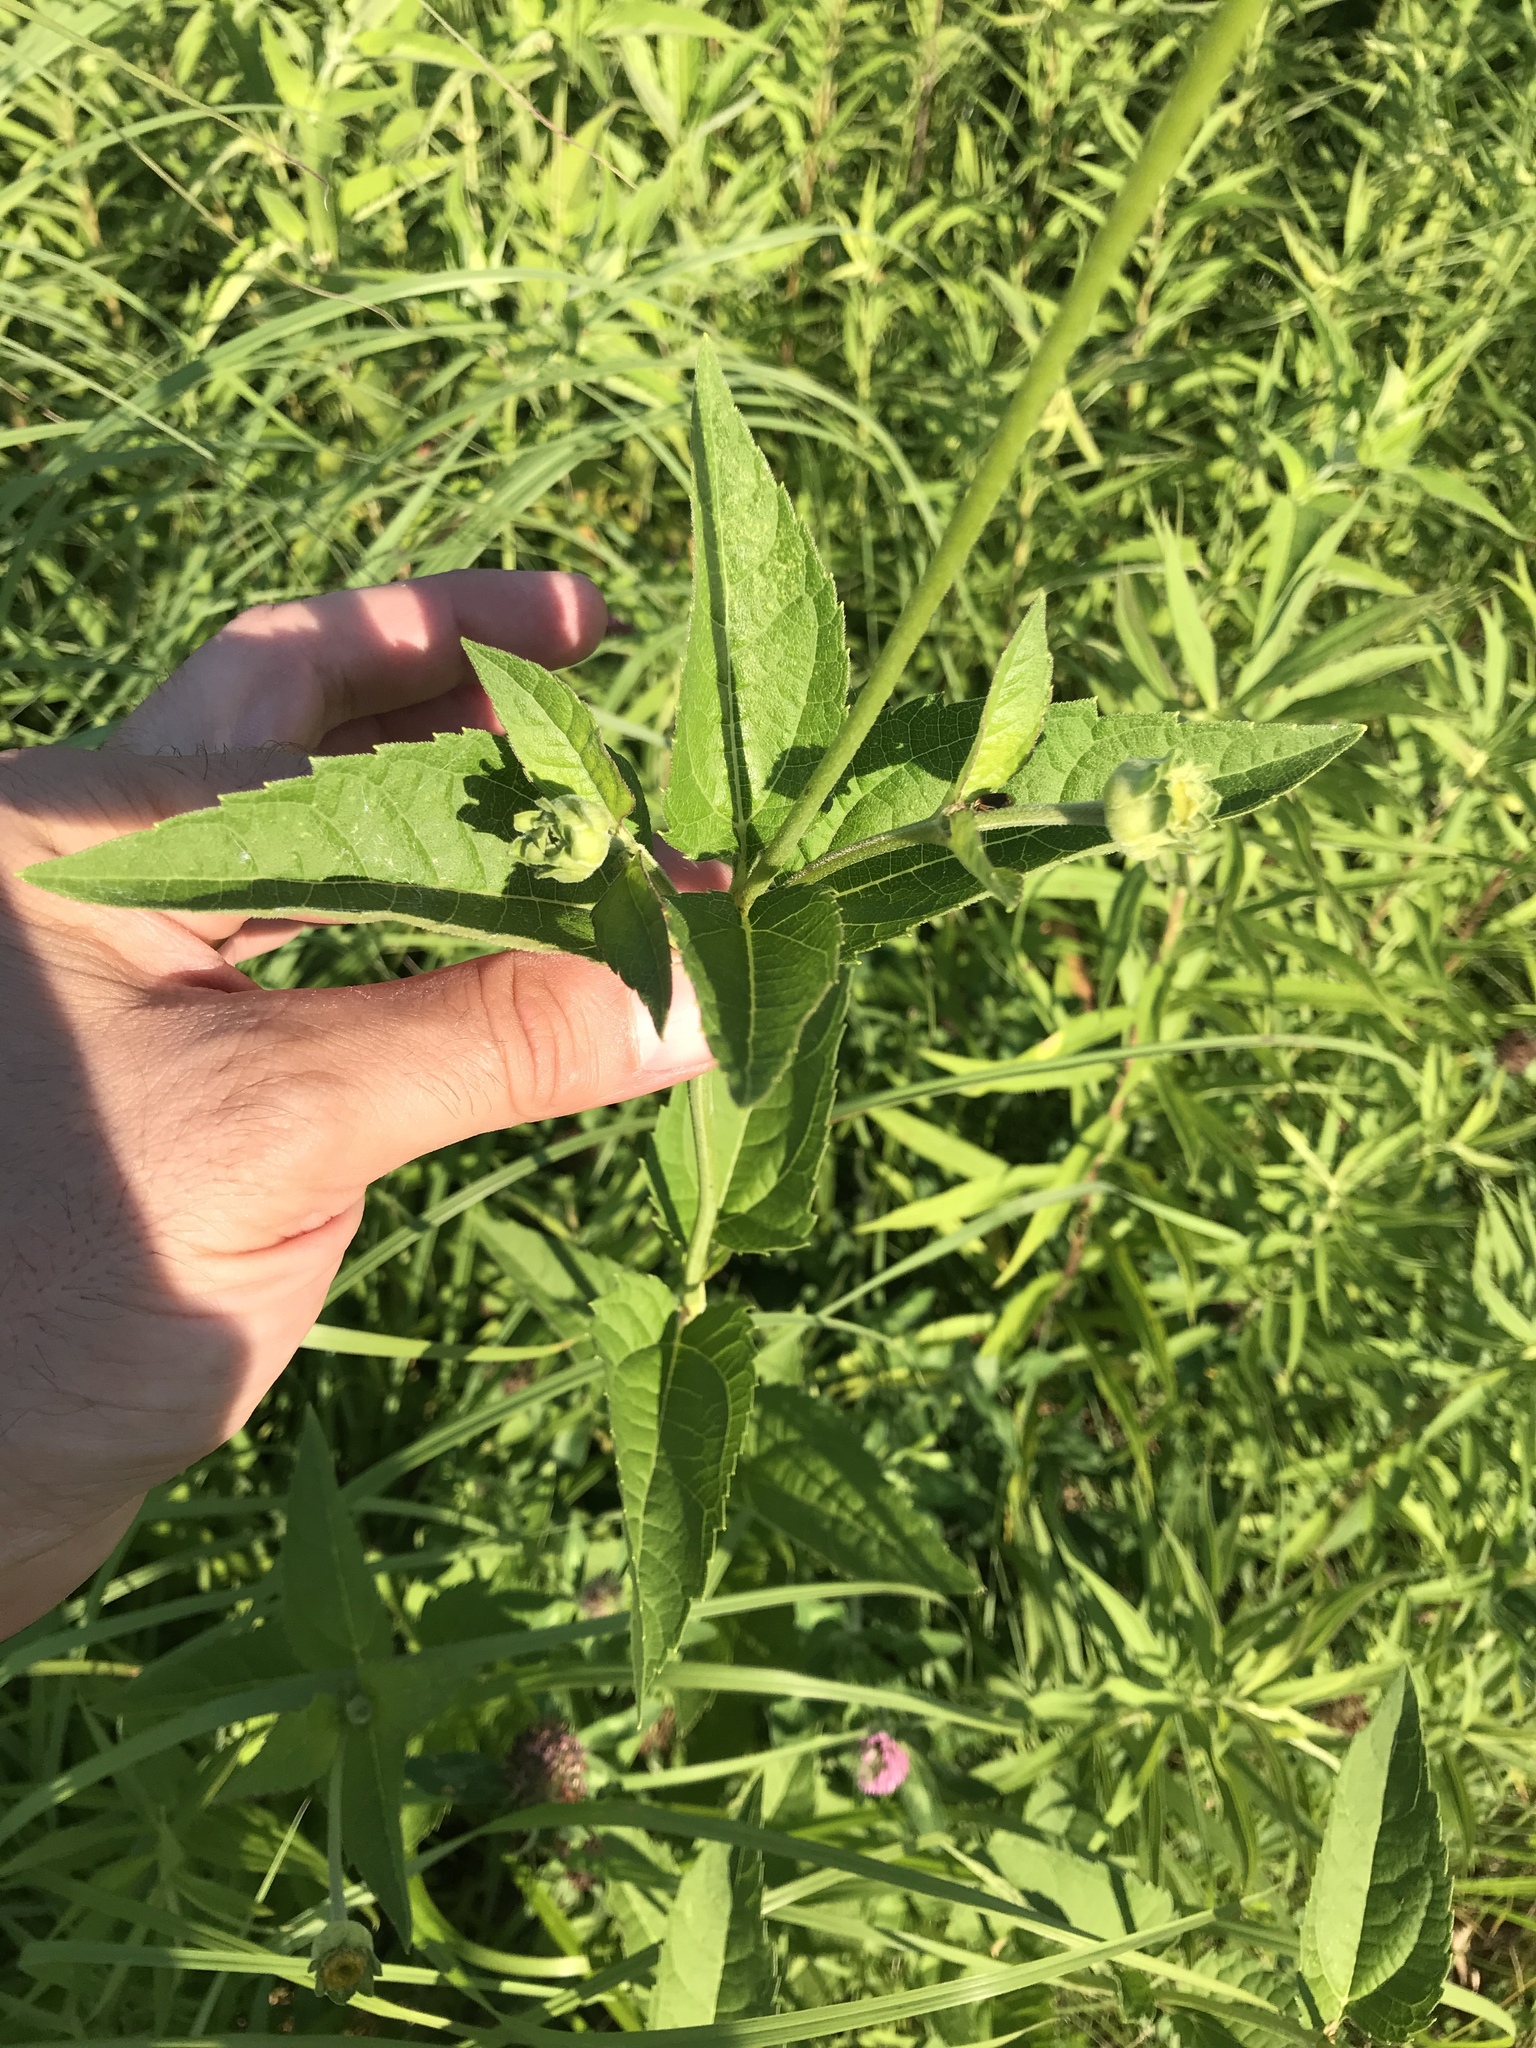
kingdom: Plantae
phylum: Tracheophyta
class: Magnoliopsida
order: Asterales
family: Asteraceae
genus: Heliopsis
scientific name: Heliopsis helianthoides
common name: False sunflower
